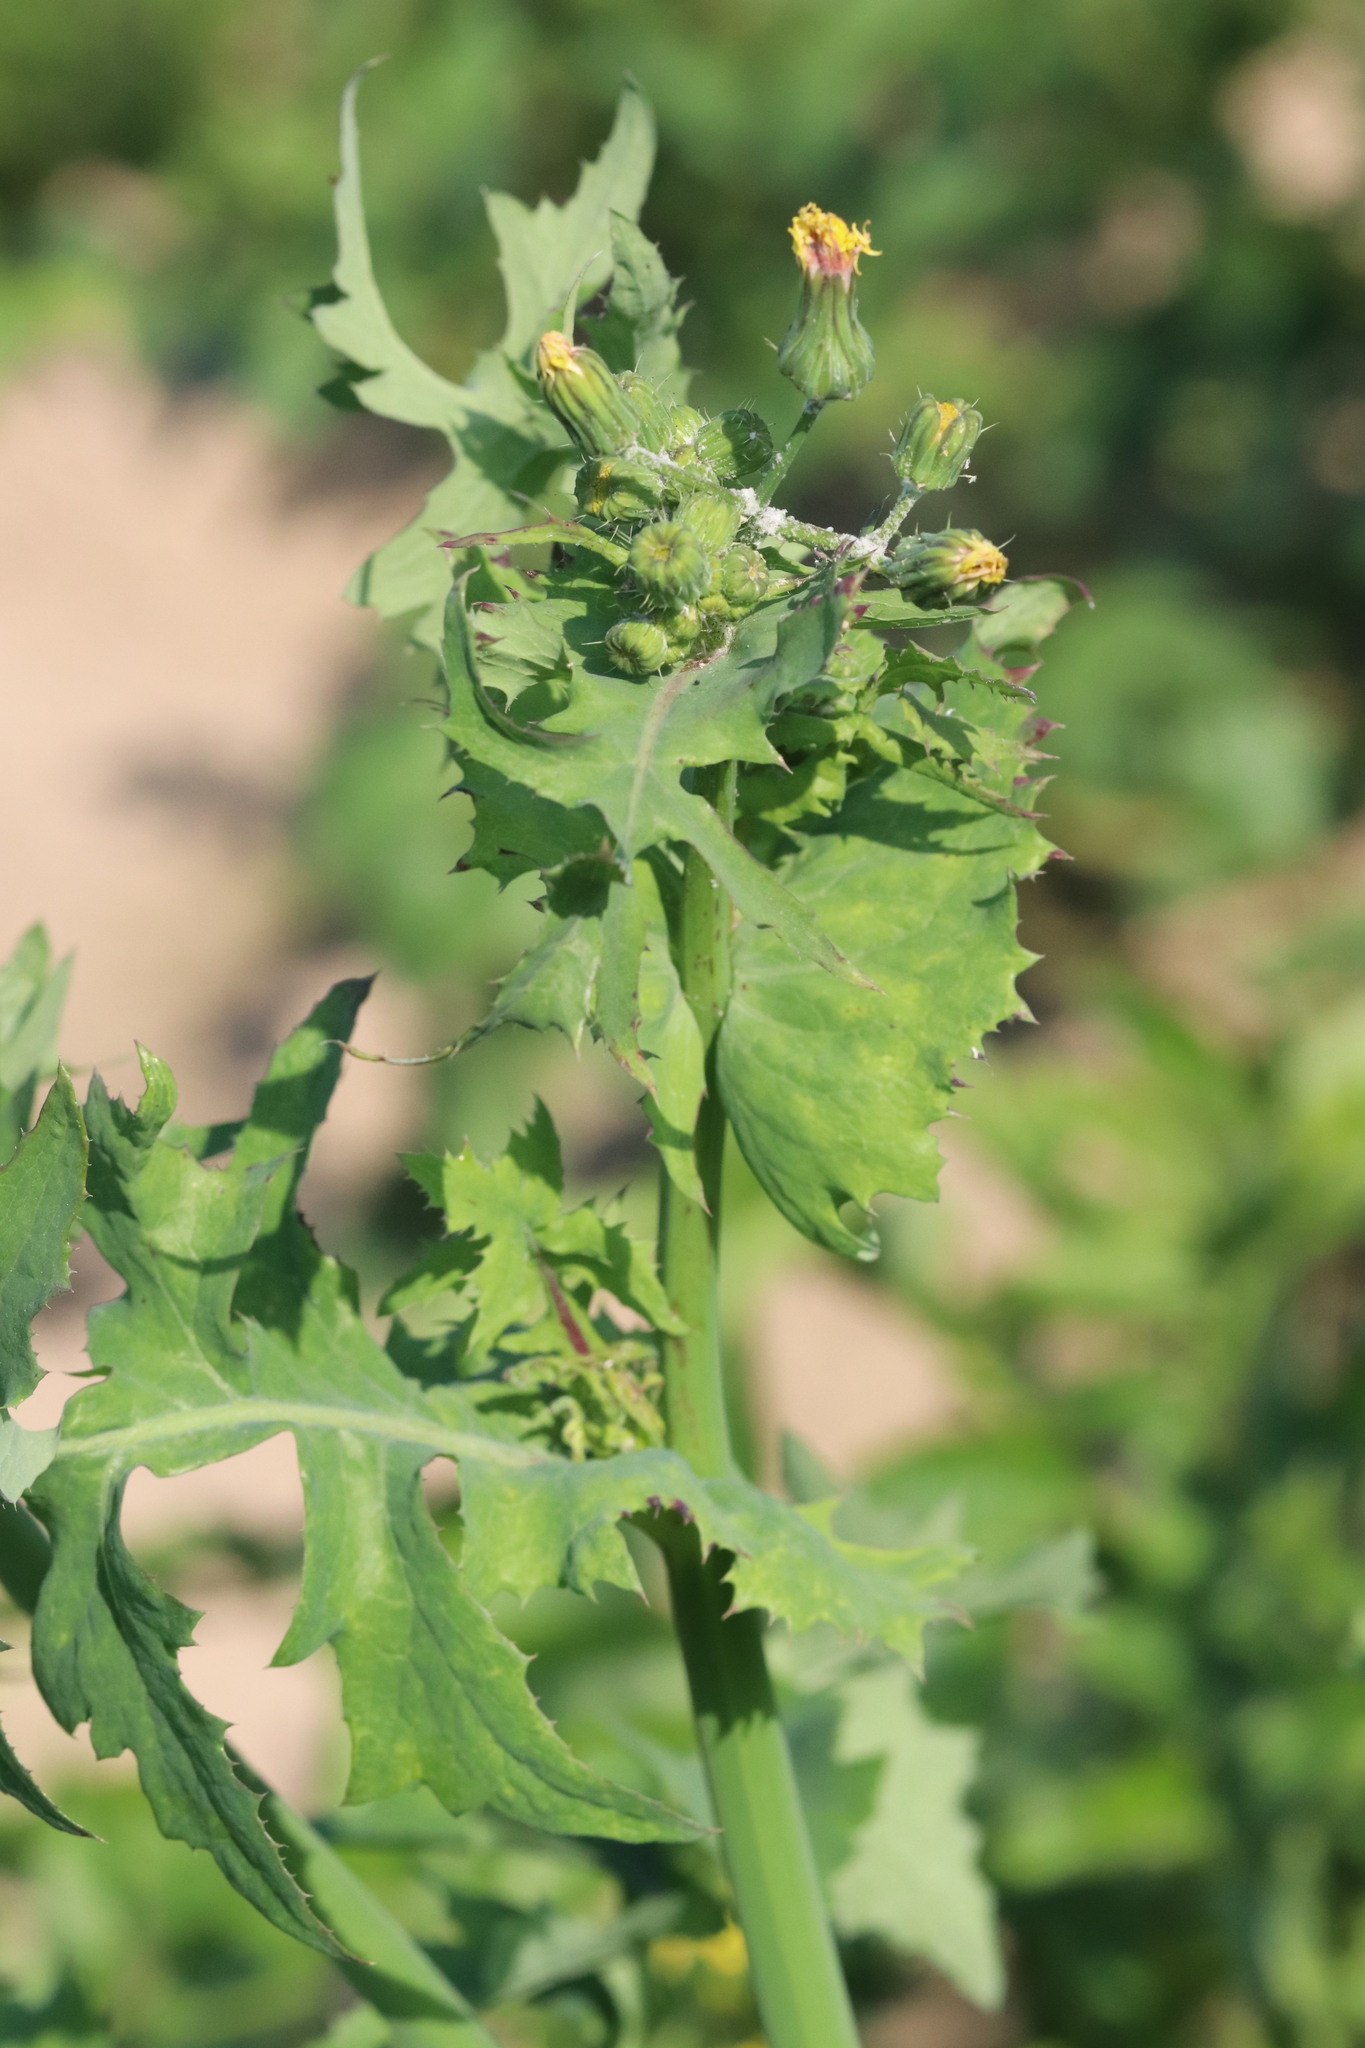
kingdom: Plantae
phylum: Tracheophyta
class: Magnoliopsida
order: Asterales
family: Asteraceae
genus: Sonchus
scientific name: Sonchus oleraceus
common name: Common sowthistle
